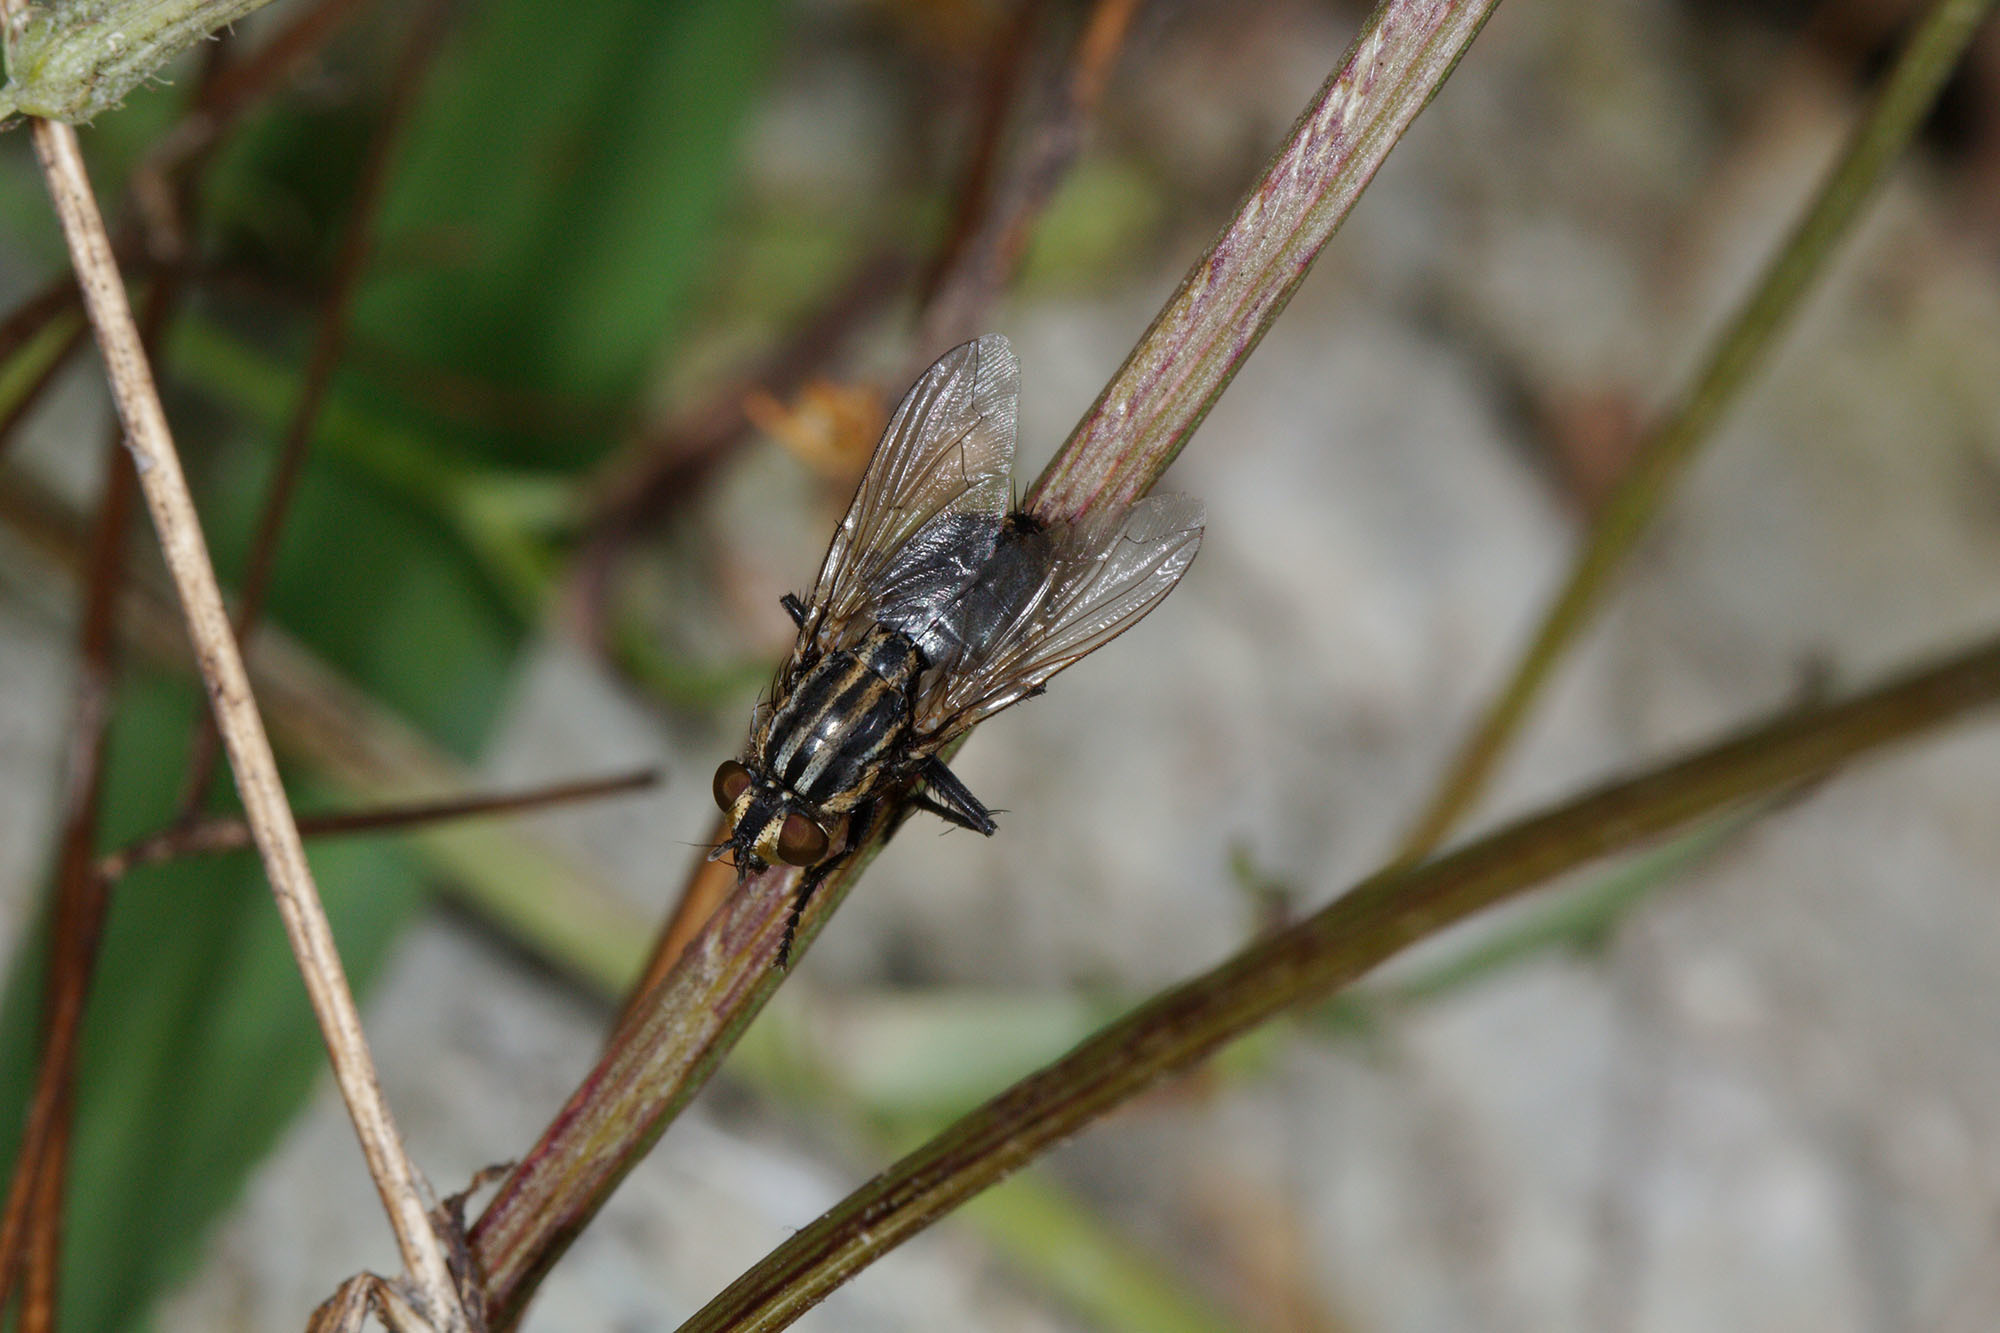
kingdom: Animalia
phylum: Arthropoda
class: Insecta
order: Diptera
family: Sarcophagidae
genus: Oxysarcodexia
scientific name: Oxysarcodexia varia
